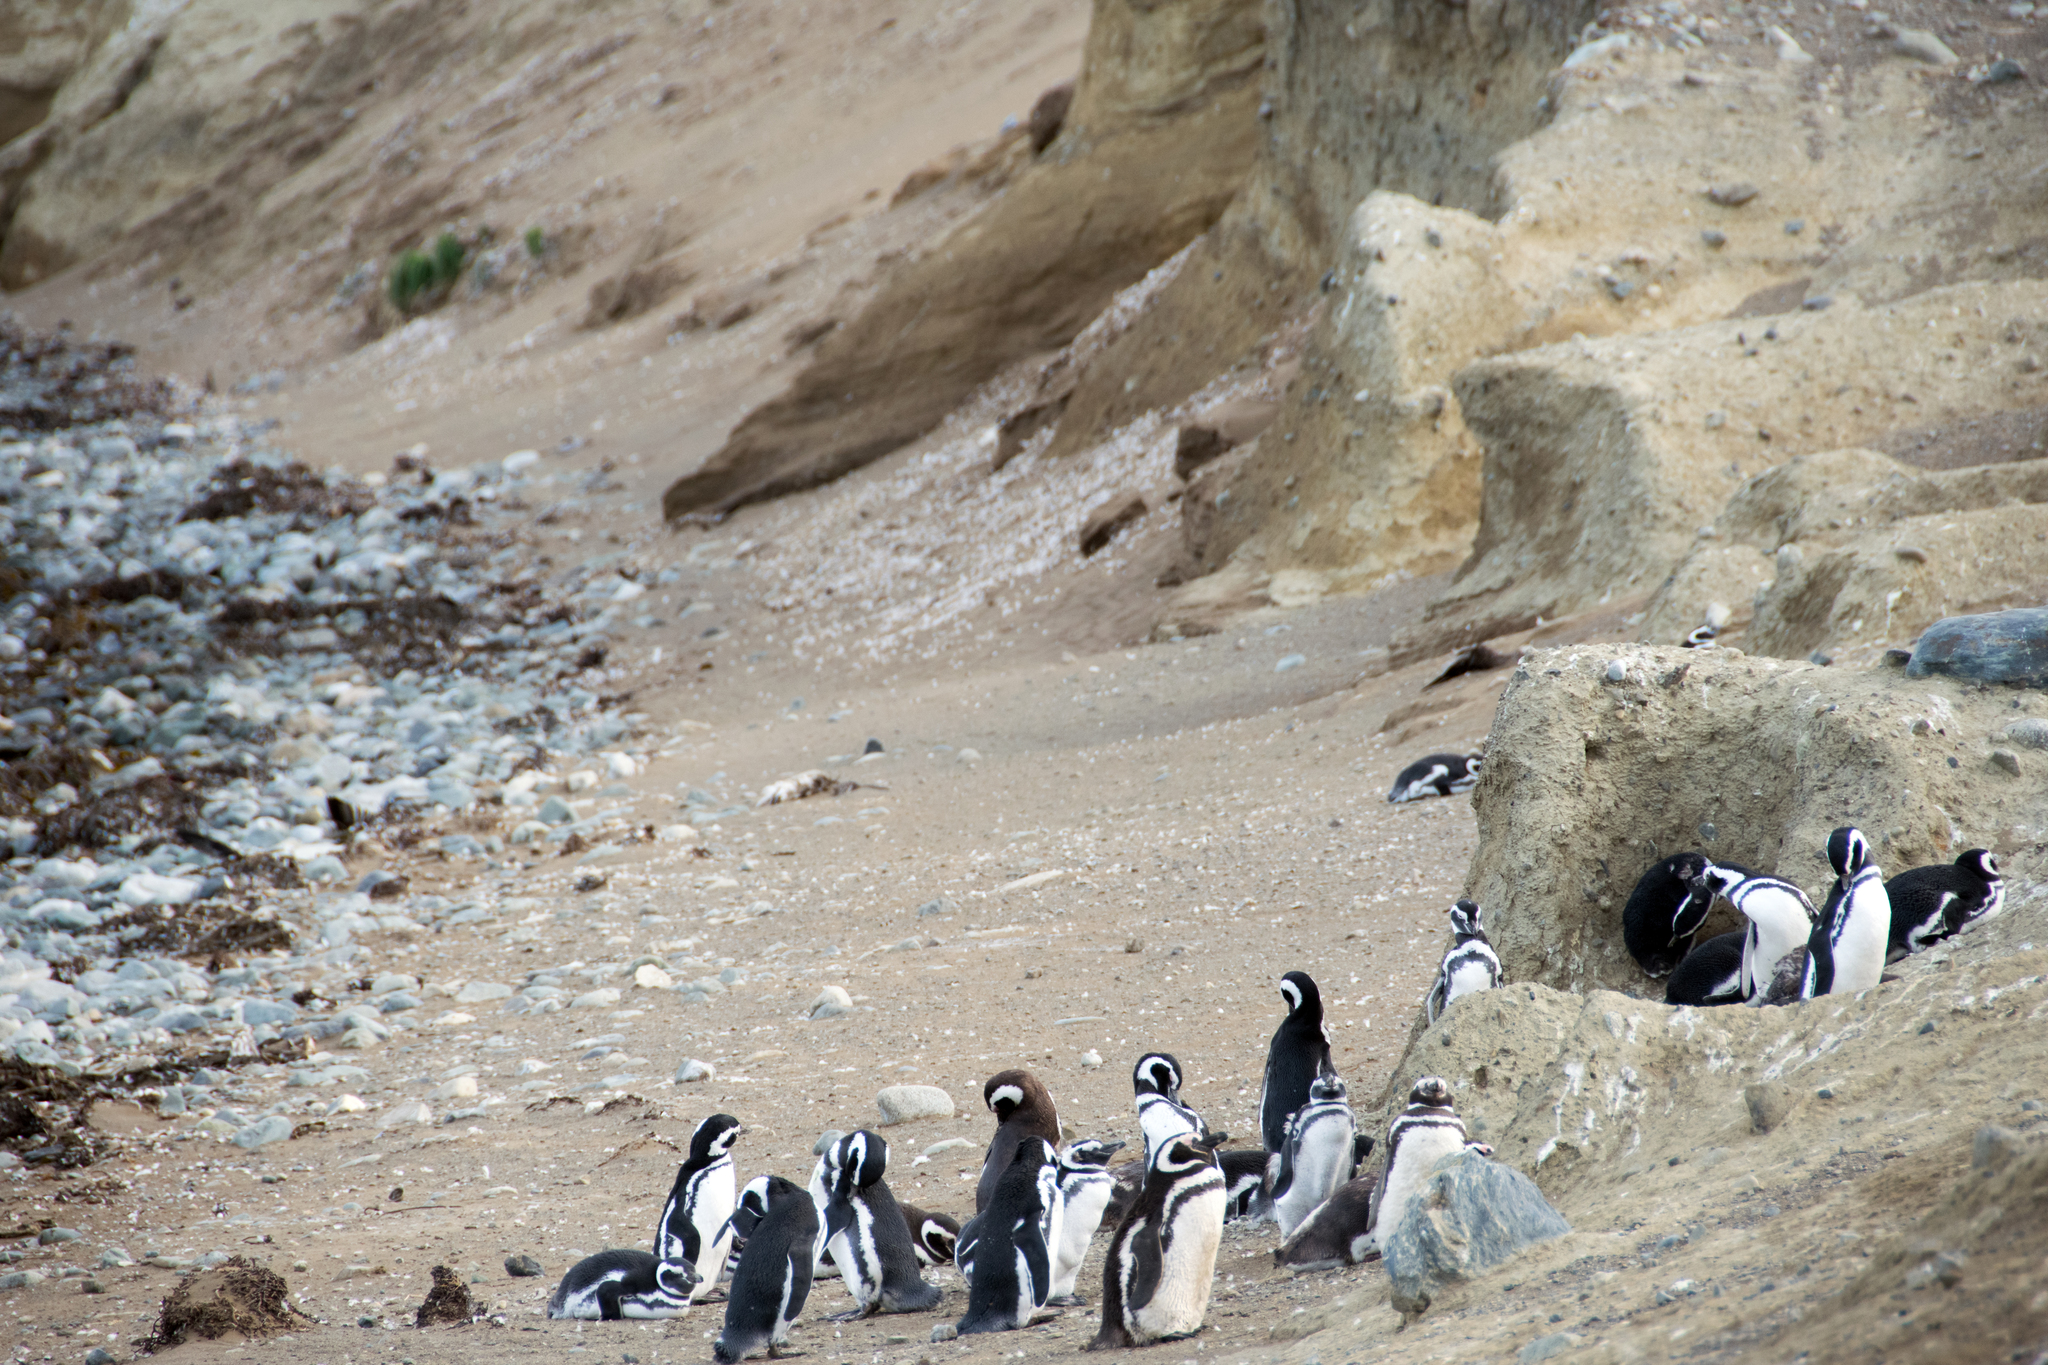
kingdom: Animalia
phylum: Chordata
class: Aves
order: Sphenisciformes
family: Spheniscidae
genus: Spheniscus
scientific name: Spheniscus magellanicus
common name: Magellanic penguin
